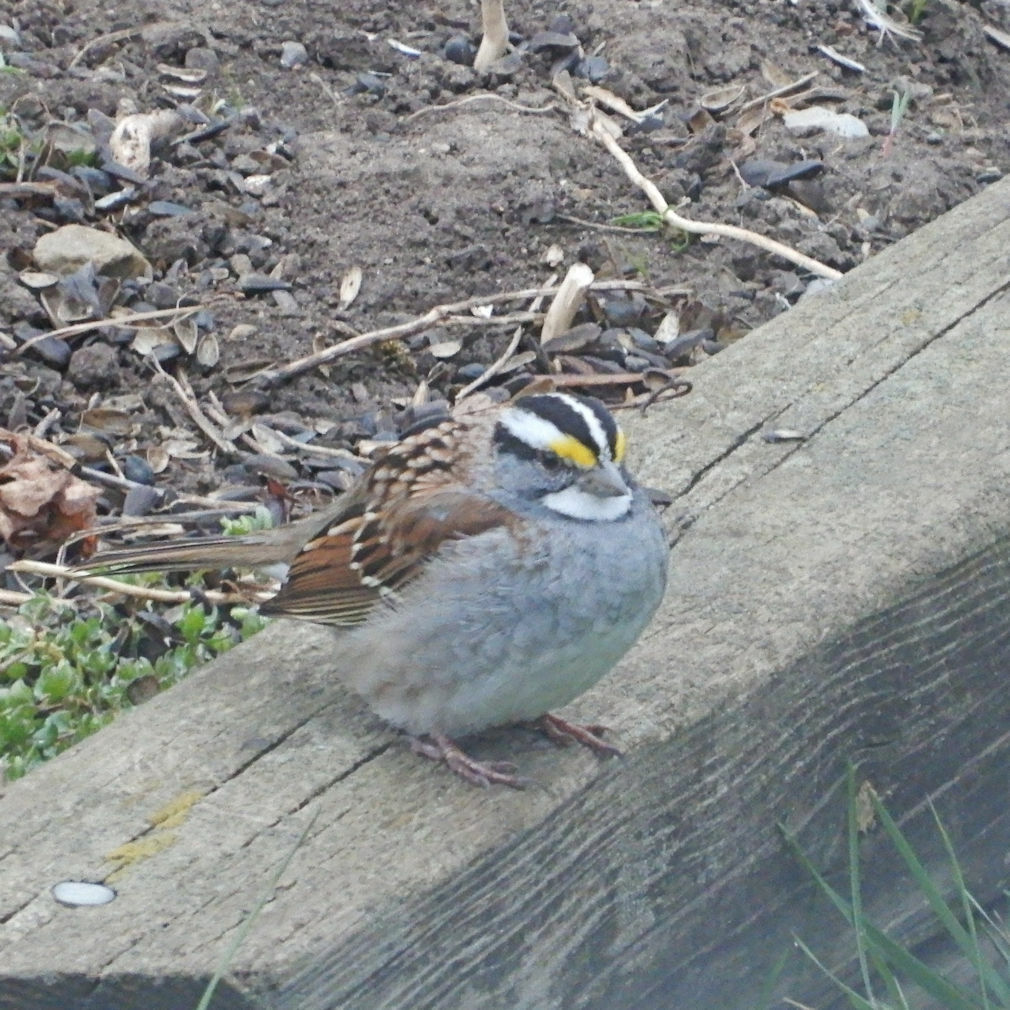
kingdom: Animalia
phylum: Chordata
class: Aves
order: Passeriformes
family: Passerellidae
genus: Zonotrichia
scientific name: Zonotrichia albicollis
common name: White-throated sparrow
